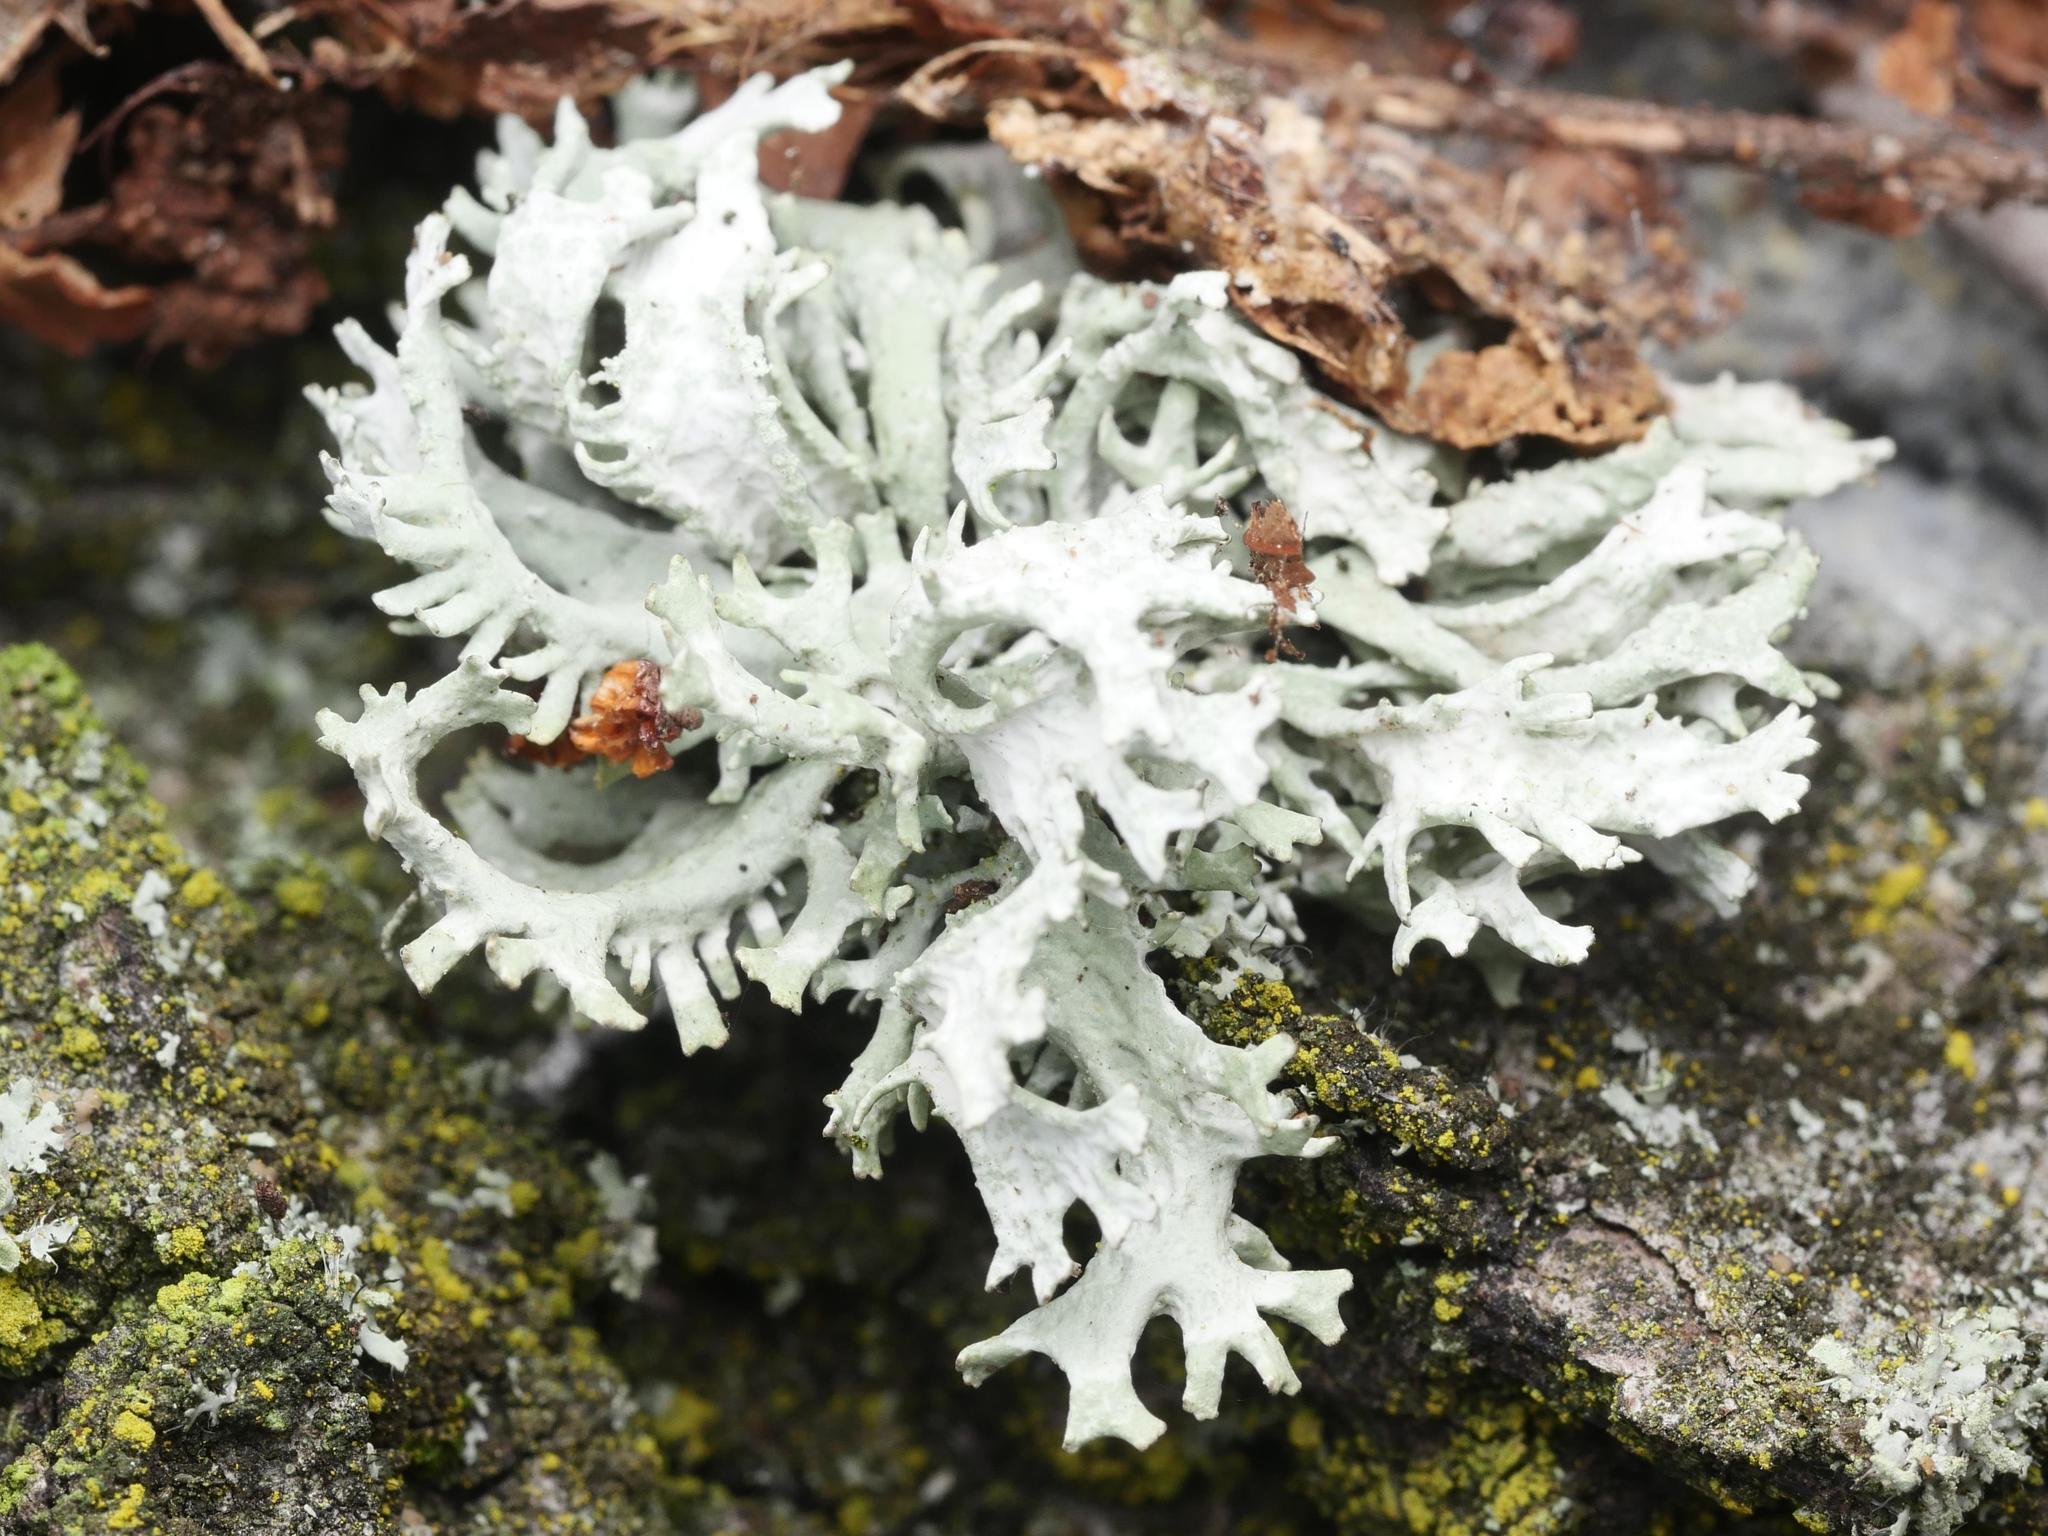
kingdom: Fungi
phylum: Ascomycota
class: Lecanoromycetes
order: Lecanorales
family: Parmeliaceae
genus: Evernia
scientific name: Evernia prunastri
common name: Oak moss
